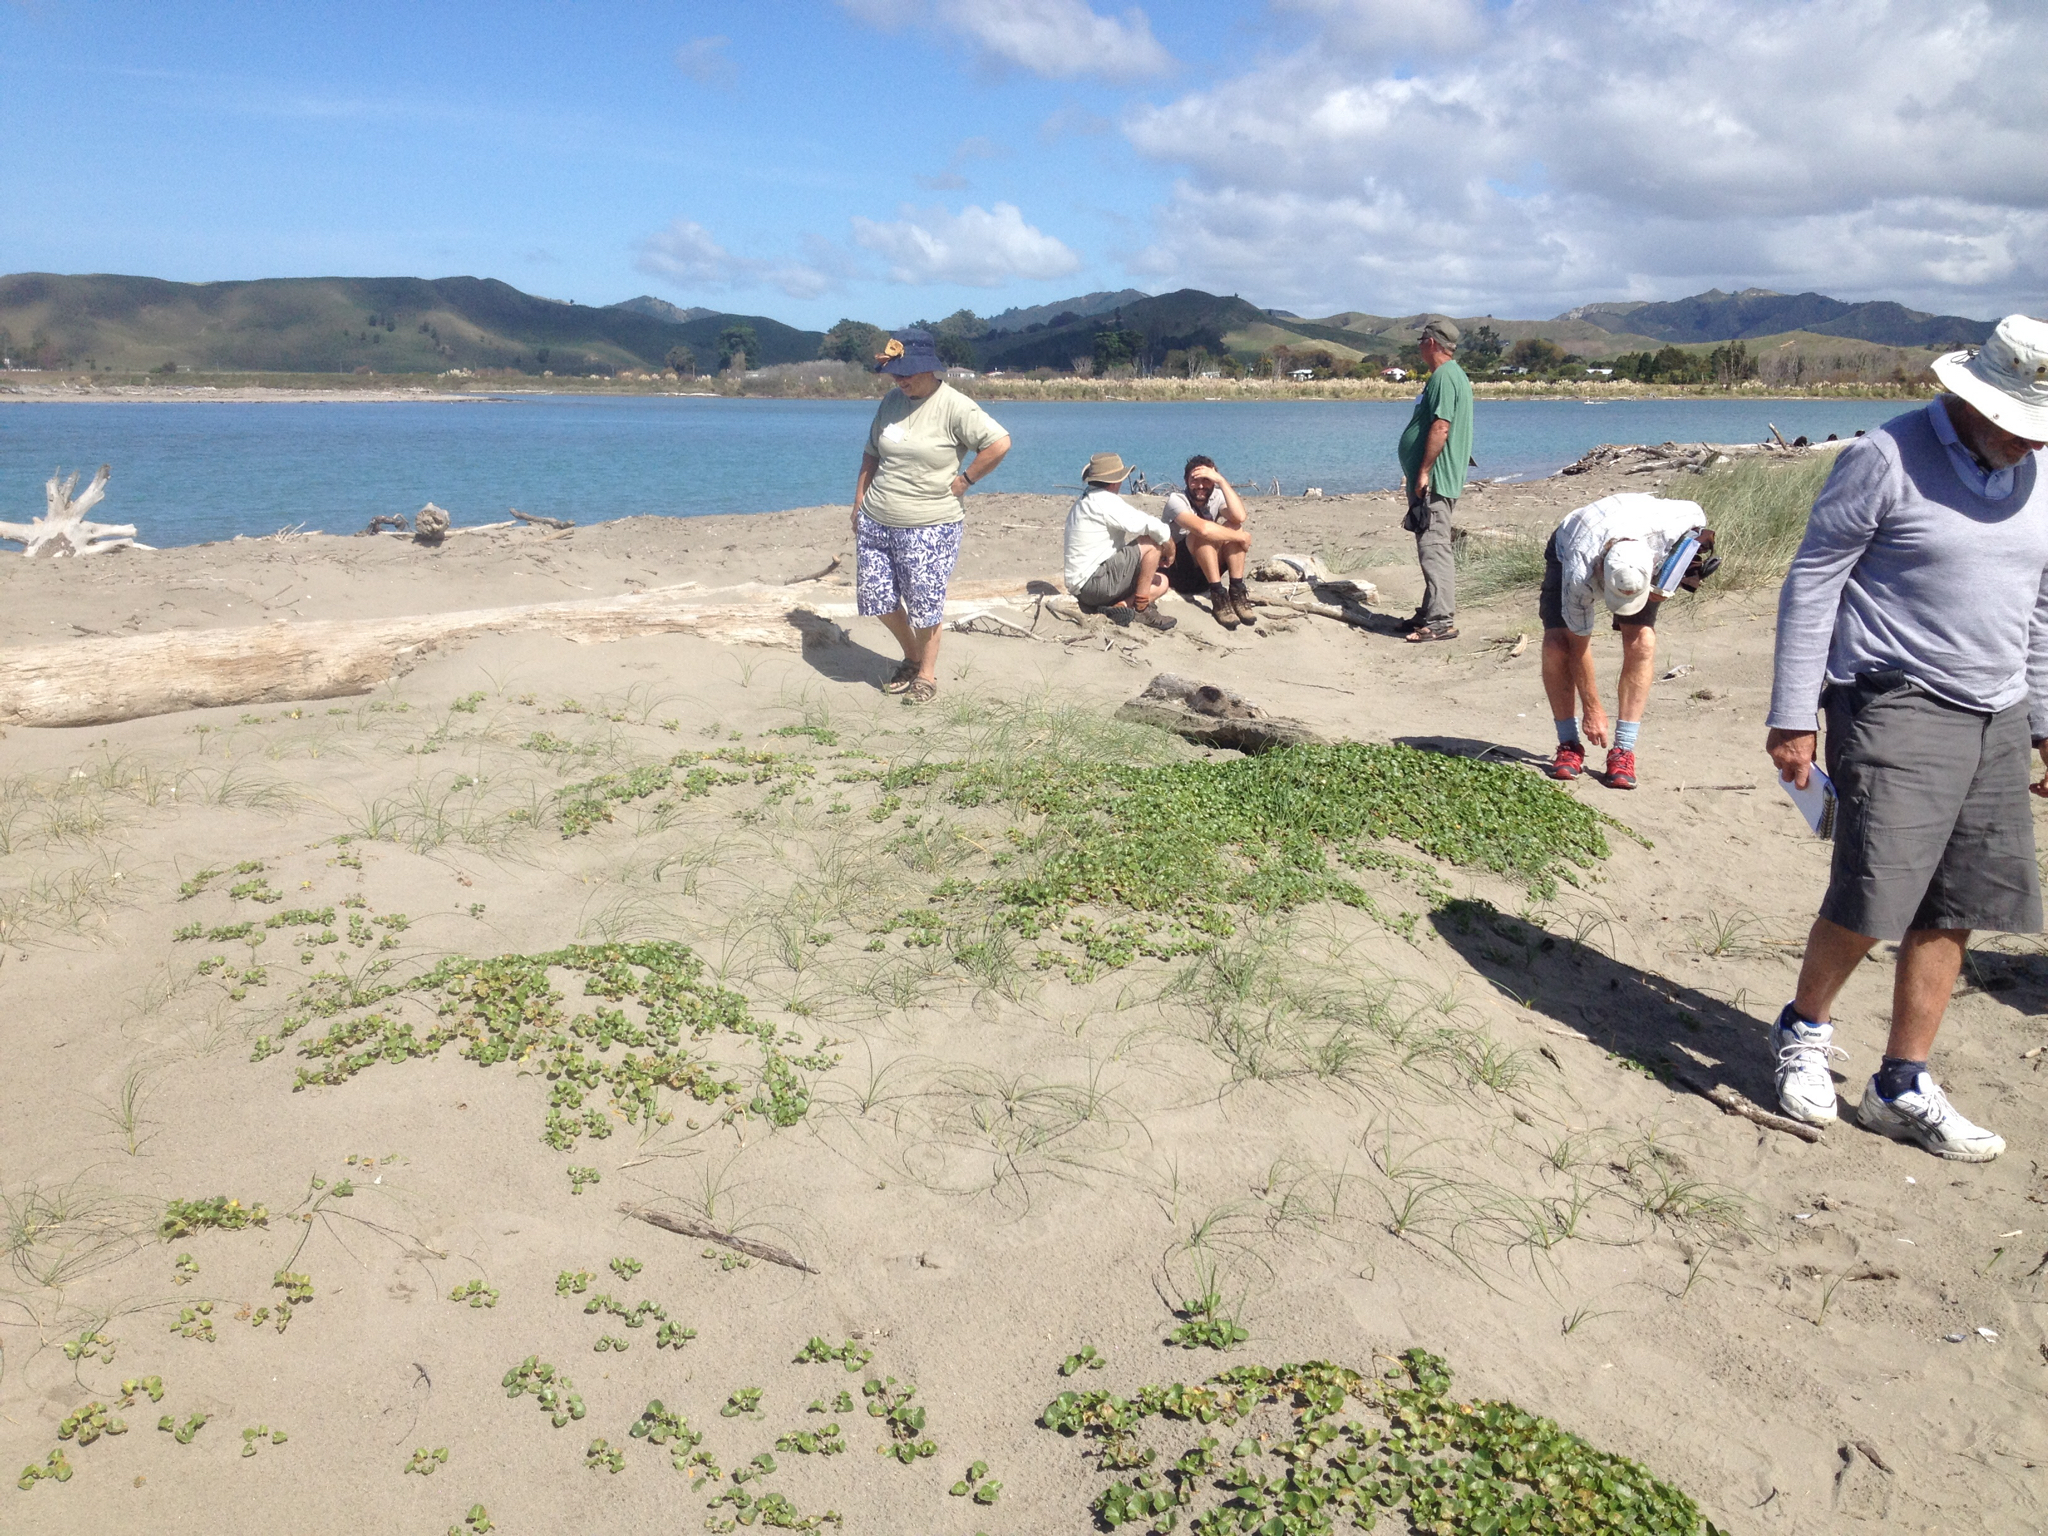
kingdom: Plantae
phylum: Tracheophyta
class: Liliopsida
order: Poales
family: Cyperaceae
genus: Carex
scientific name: Carex pumila
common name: Dwarf sedge
